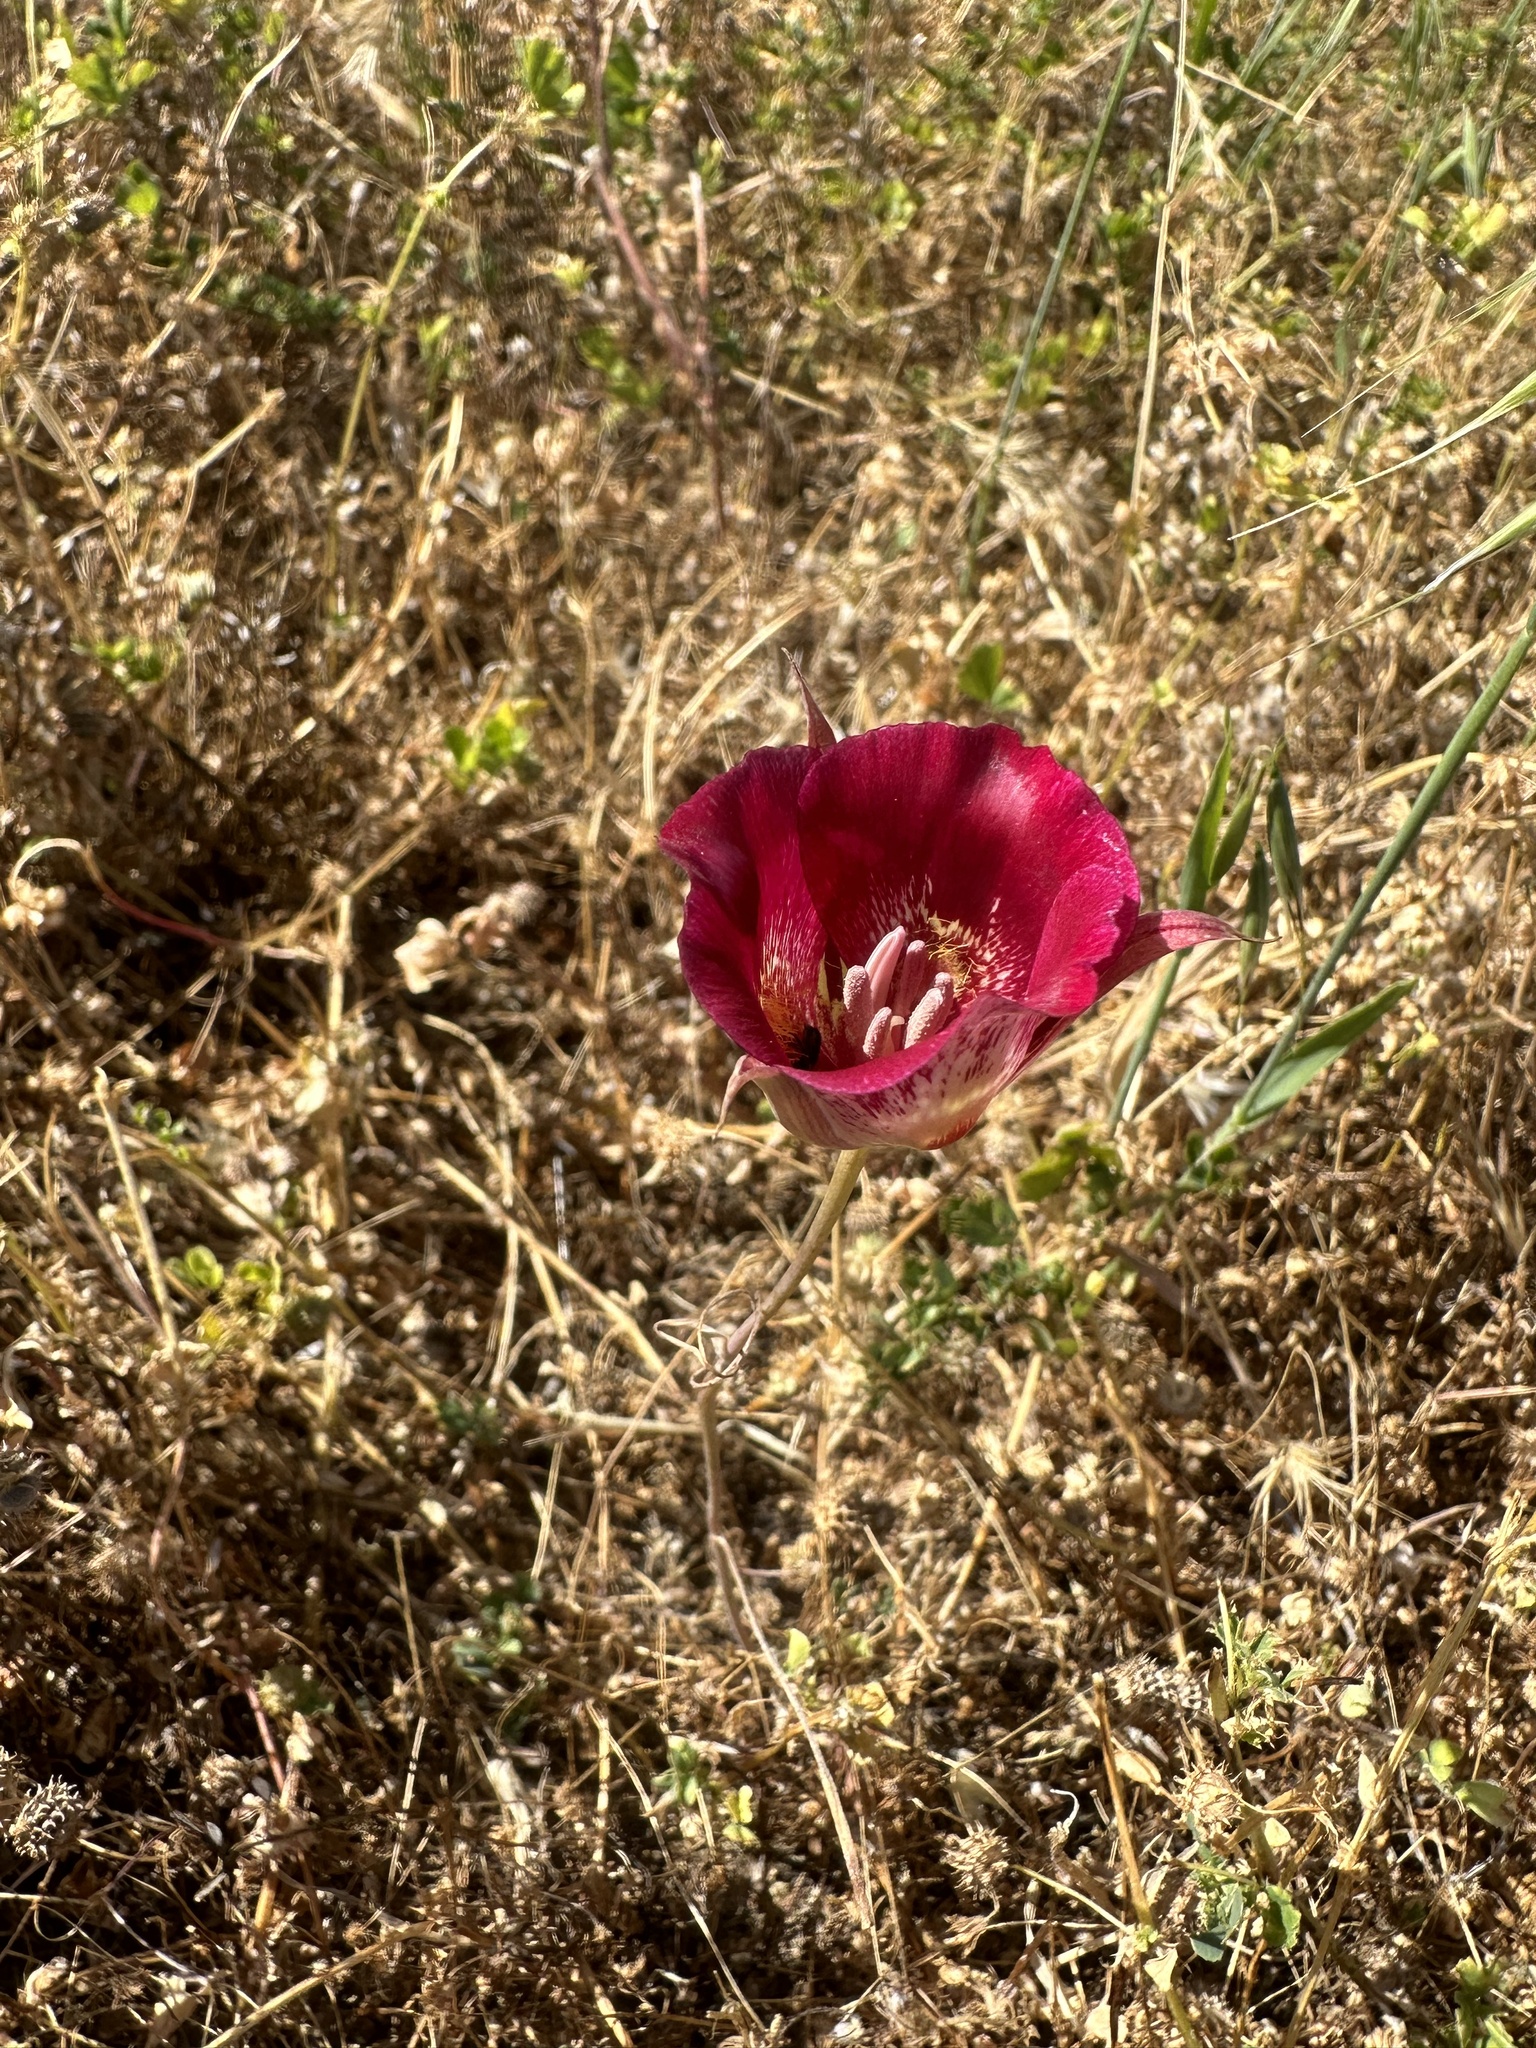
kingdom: Plantae
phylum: Tracheophyta
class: Liliopsida
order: Liliales
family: Liliaceae
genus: Calochortus
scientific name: Calochortus venustus
